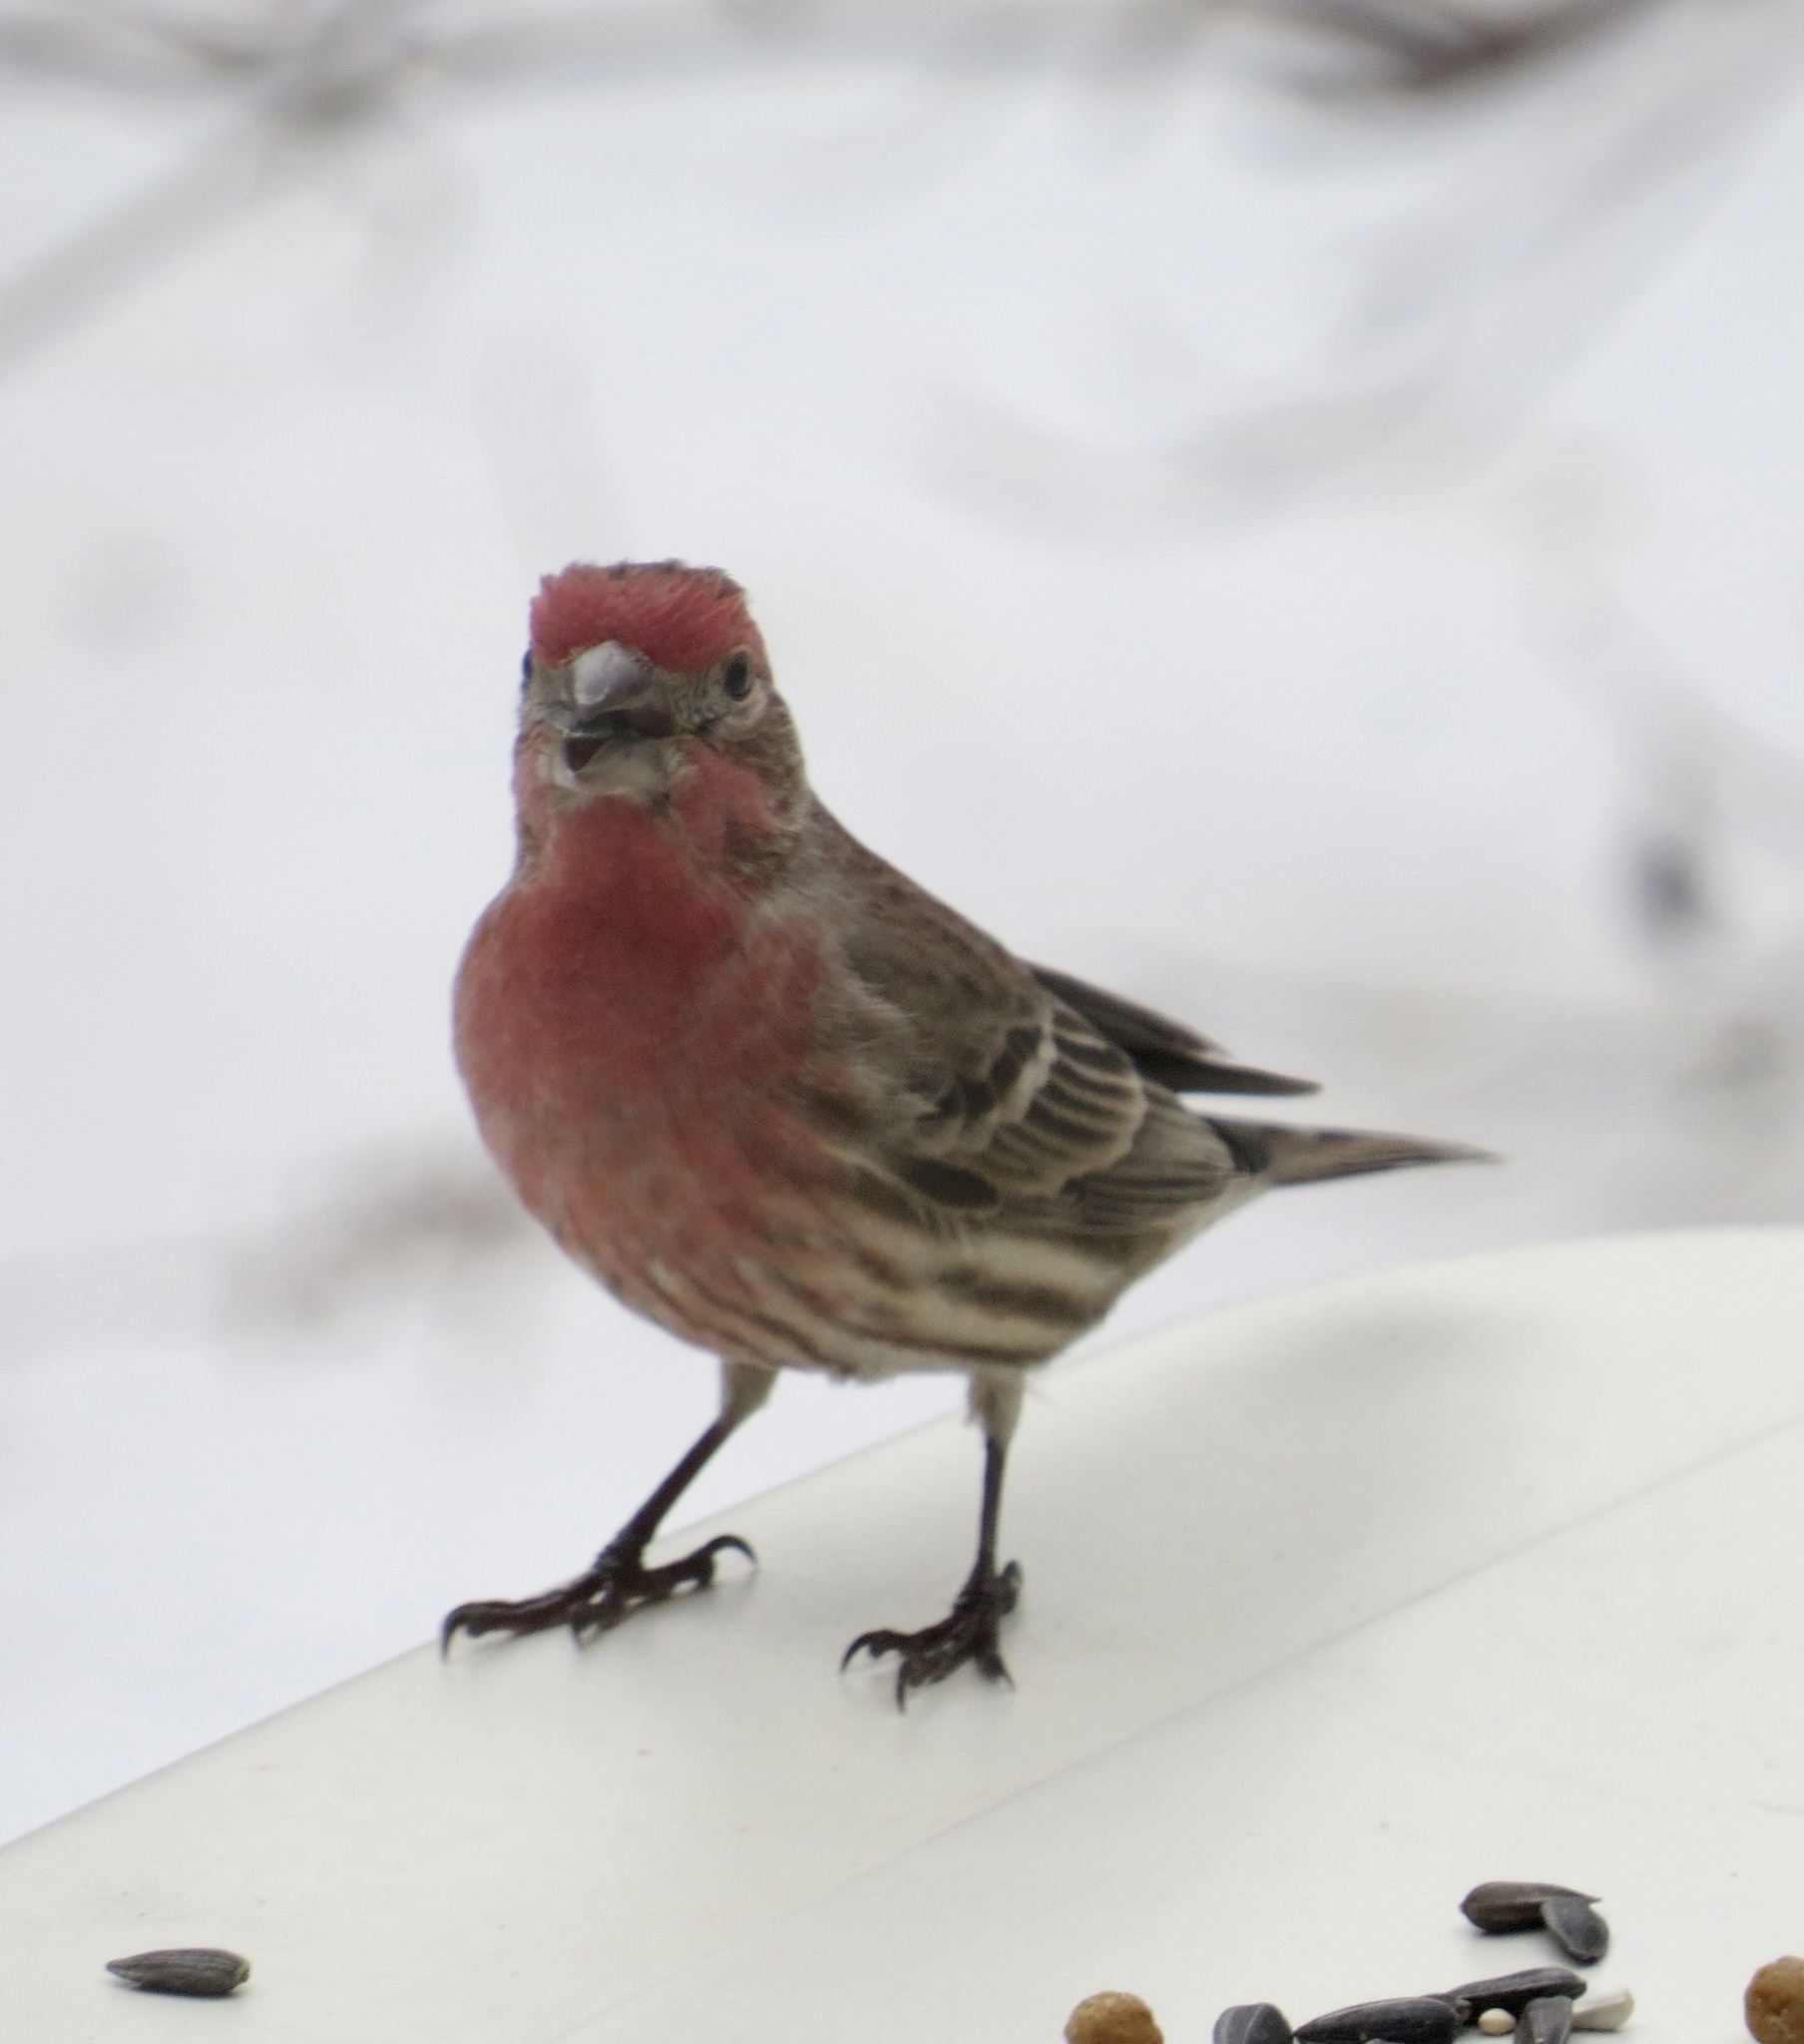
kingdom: Animalia
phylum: Chordata
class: Aves
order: Passeriformes
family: Fringillidae
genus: Haemorhous
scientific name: Haemorhous mexicanus
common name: House finch
